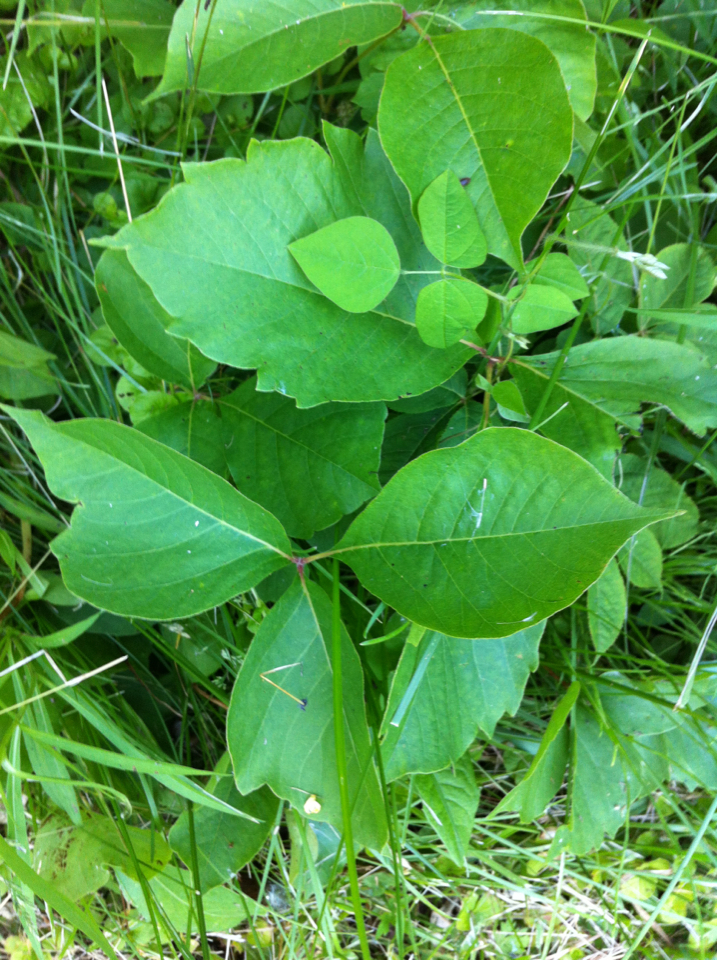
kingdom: Plantae
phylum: Tracheophyta
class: Magnoliopsida
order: Sapindales
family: Anacardiaceae
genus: Toxicodendron
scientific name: Toxicodendron radicans
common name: Poison ivy
